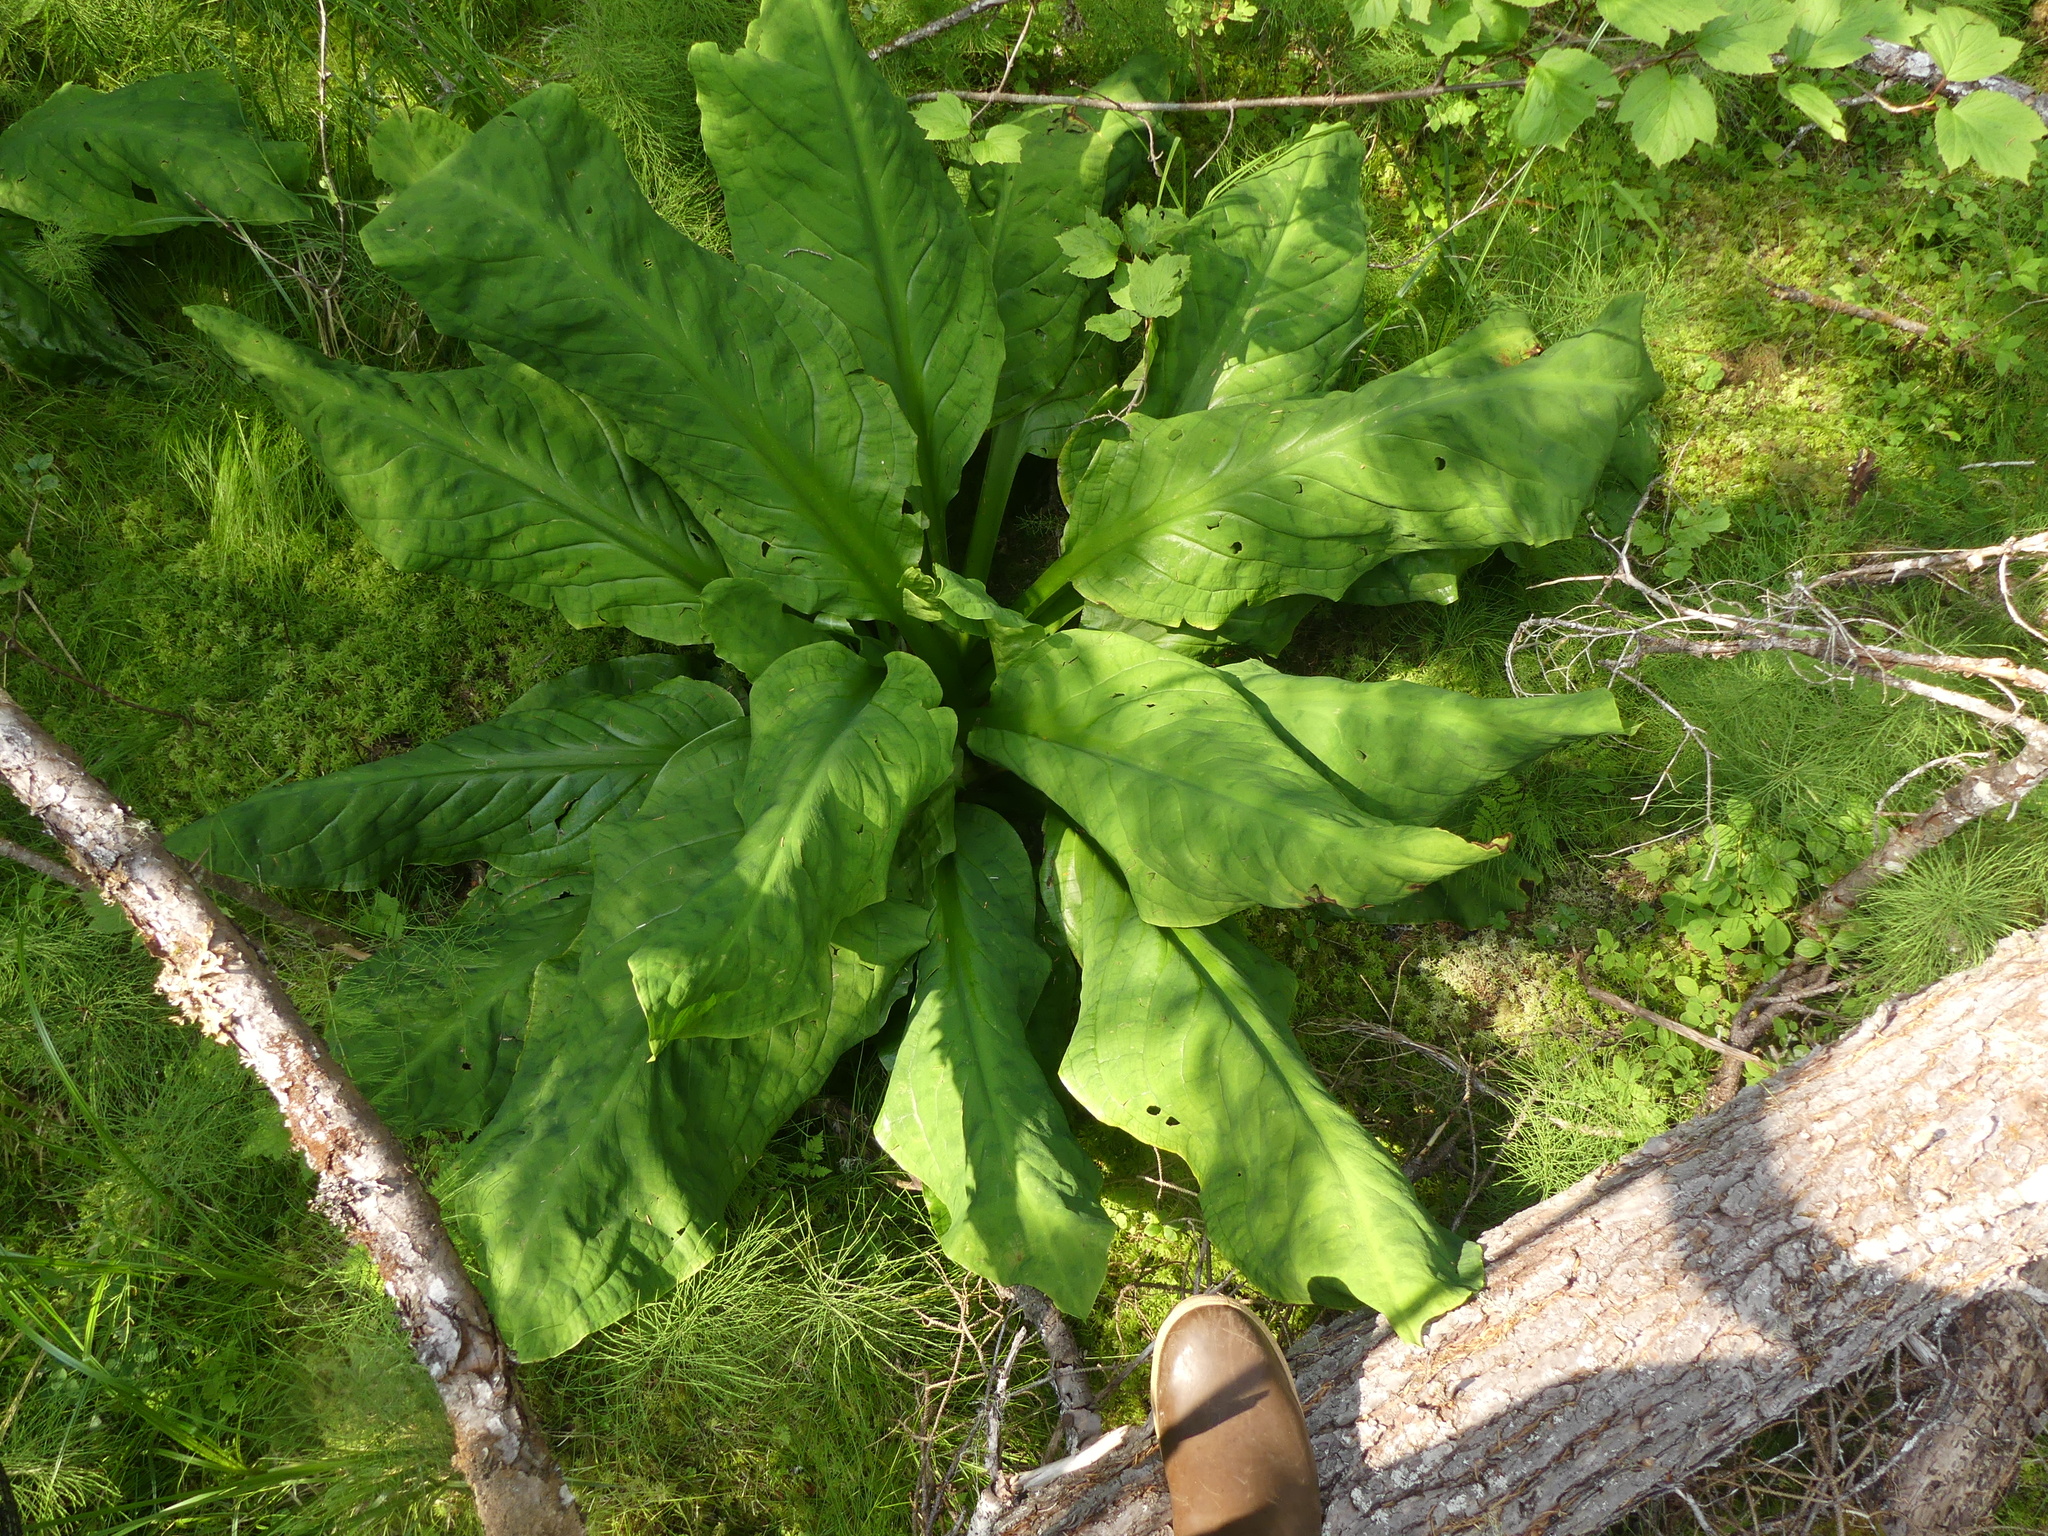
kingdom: Plantae
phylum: Tracheophyta
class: Liliopsida
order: Alismatales
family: Araceae
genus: Lysichiton
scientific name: Lysichiton americanus
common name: American skunk cabbage
